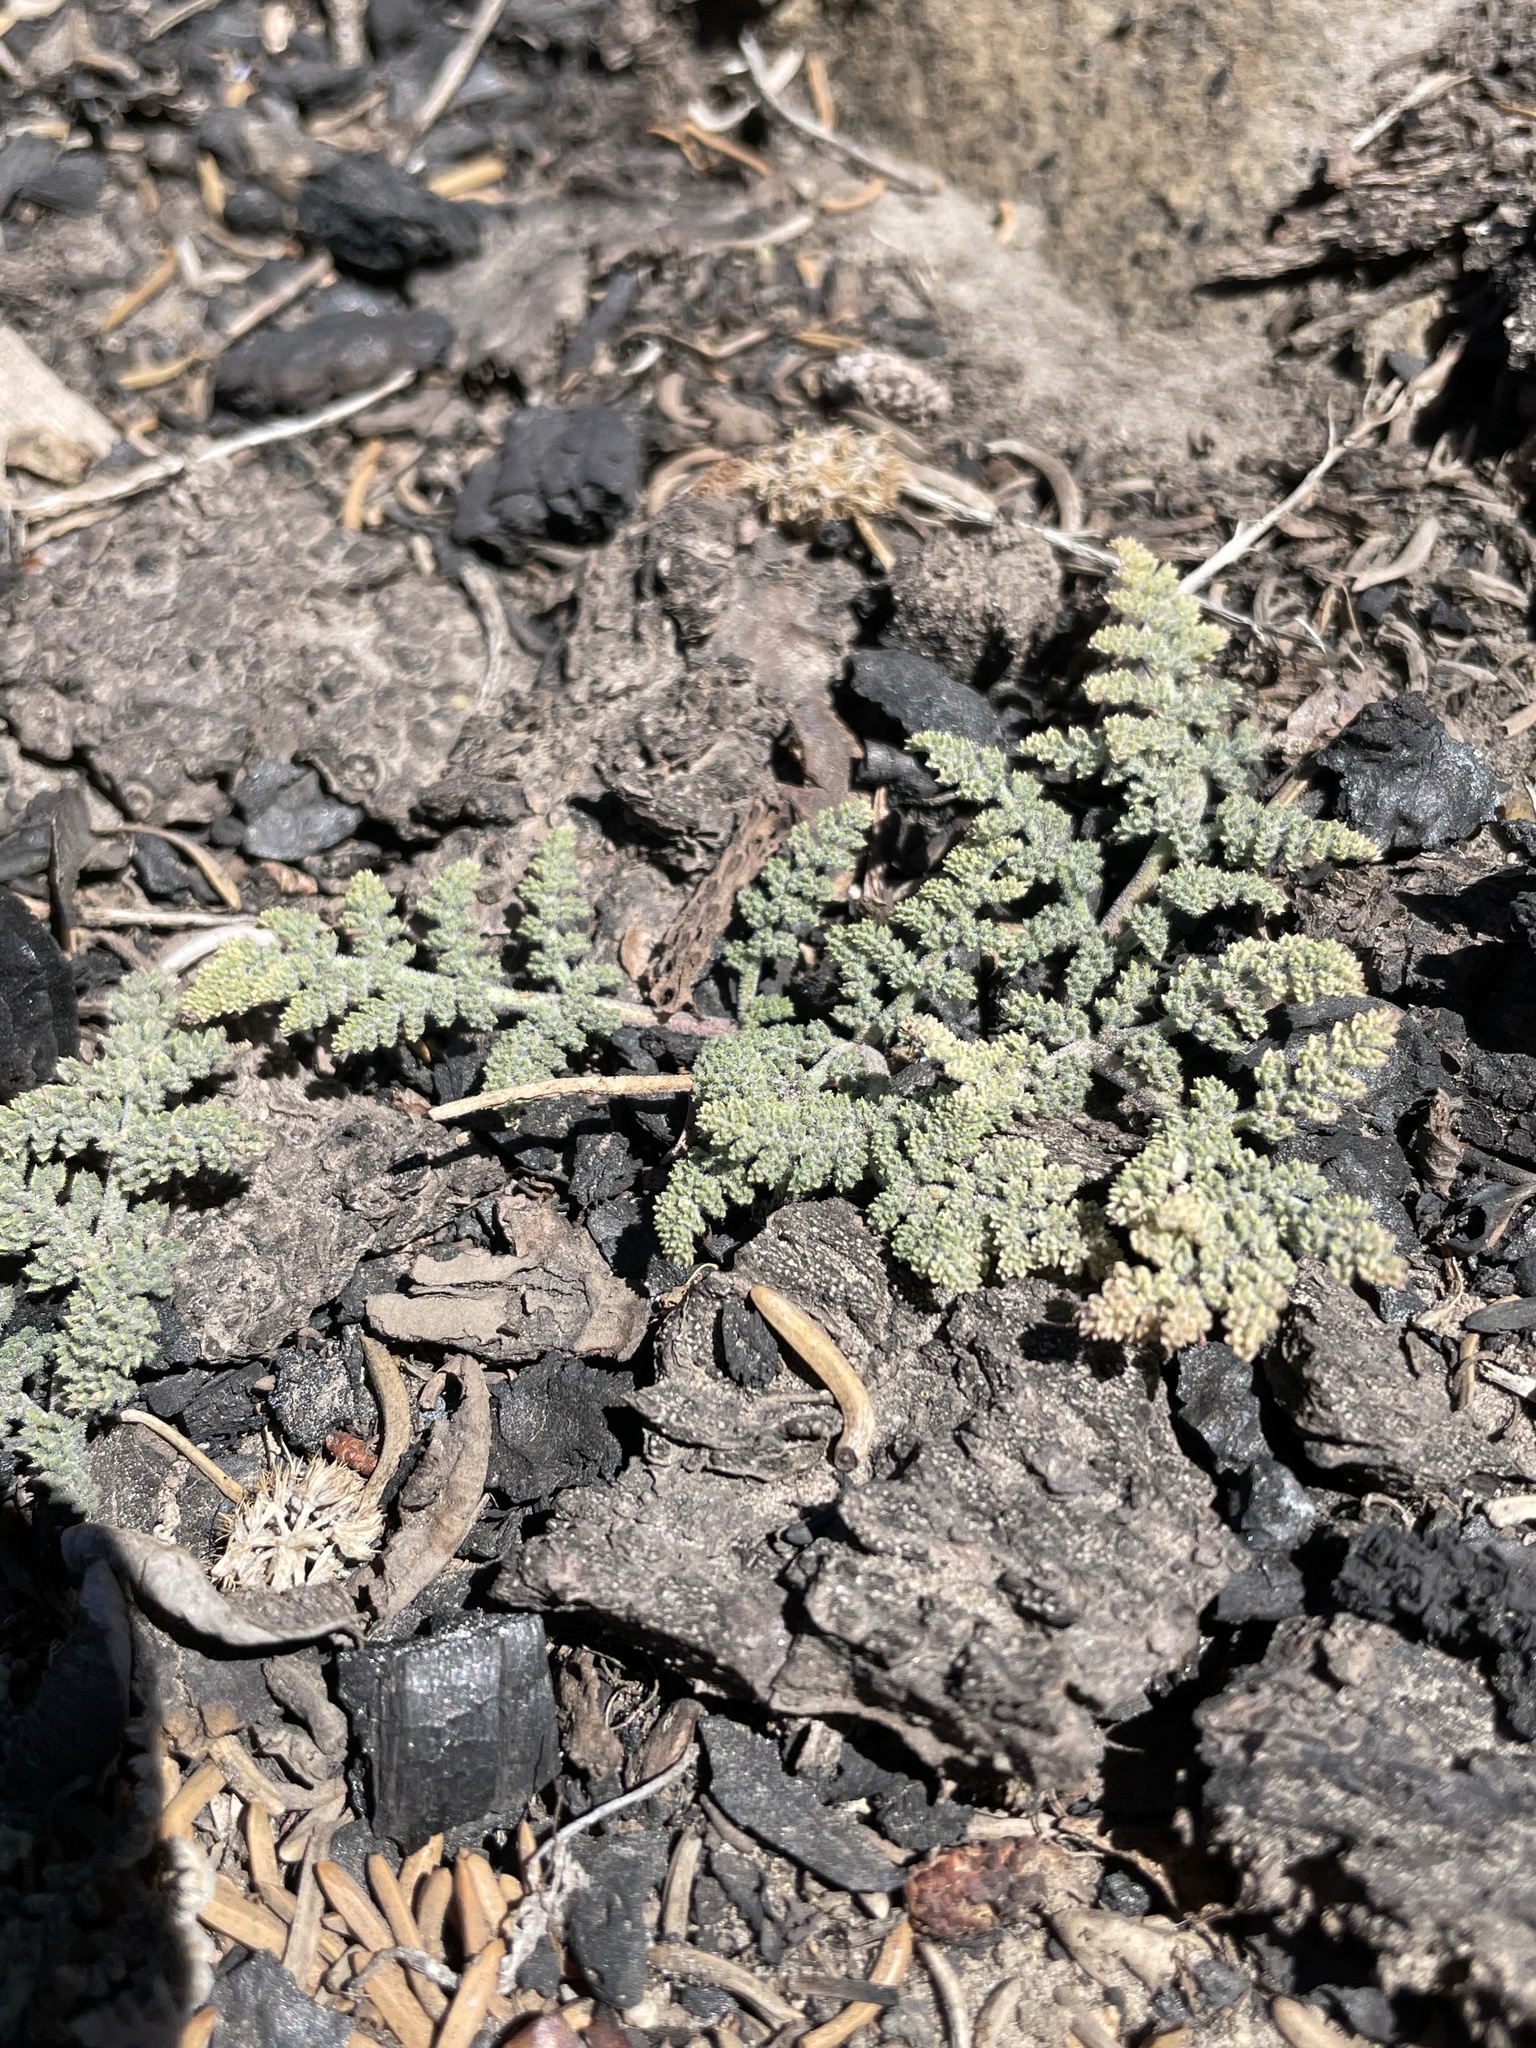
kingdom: Plantae
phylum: Tracheophyta
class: Magnoliopsida
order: Apiales
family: Apiaceae
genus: Oreonana
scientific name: Oreonana purpurascens
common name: Purple mountain-parsley
